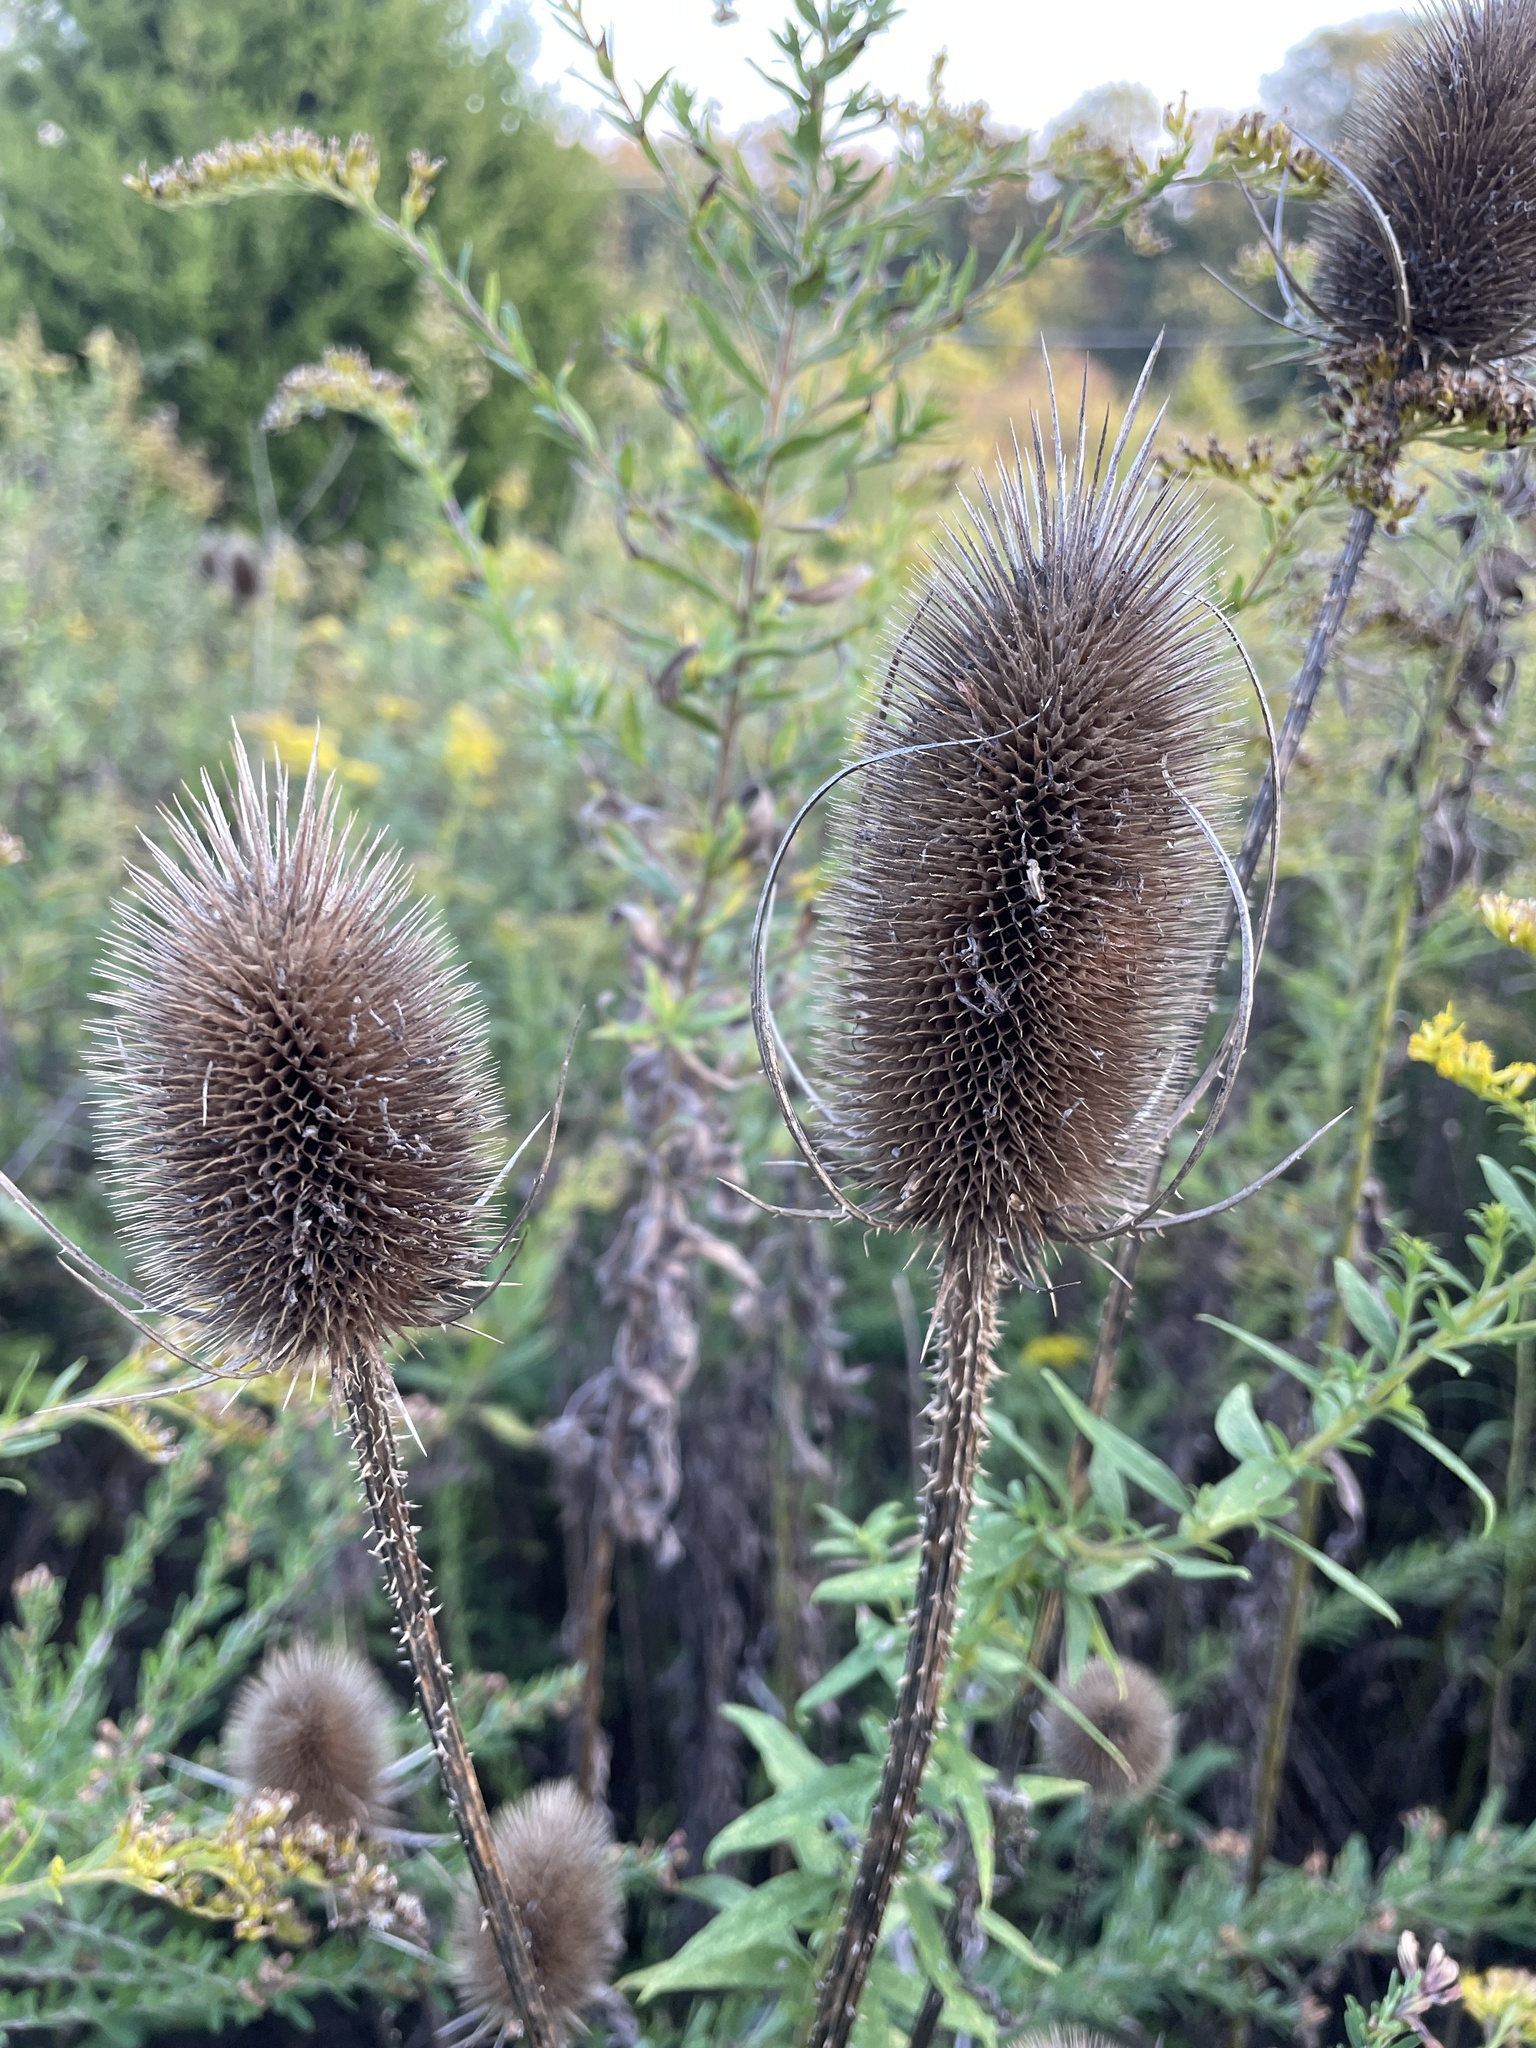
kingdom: Plantae
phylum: Tracheophyta
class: Magnoliopsida
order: Dipsacales
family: Caprifoliaceae
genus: Dipsacus
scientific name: Dipsacus fullonum
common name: Teasel
